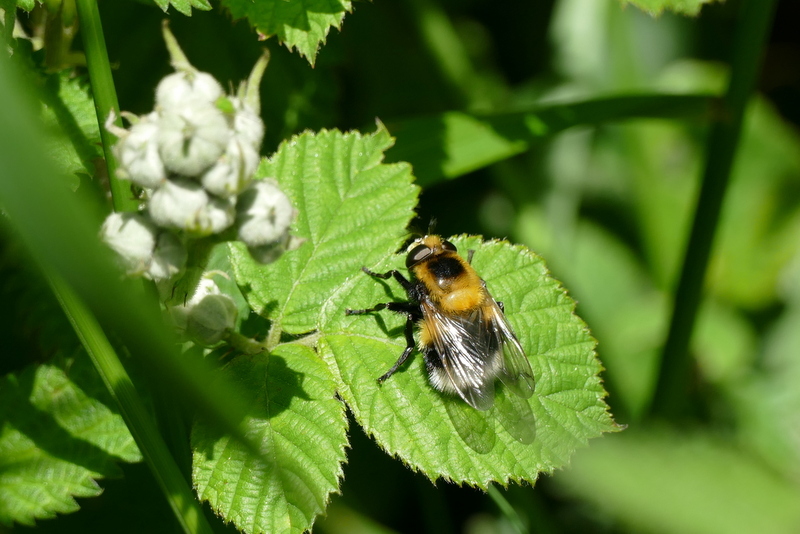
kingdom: Animalia
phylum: Arthropoda
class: Insecta
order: Diptera
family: Syrphidae
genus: Volucella
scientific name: Volucella bombylans
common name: Bumble bee hover fly
